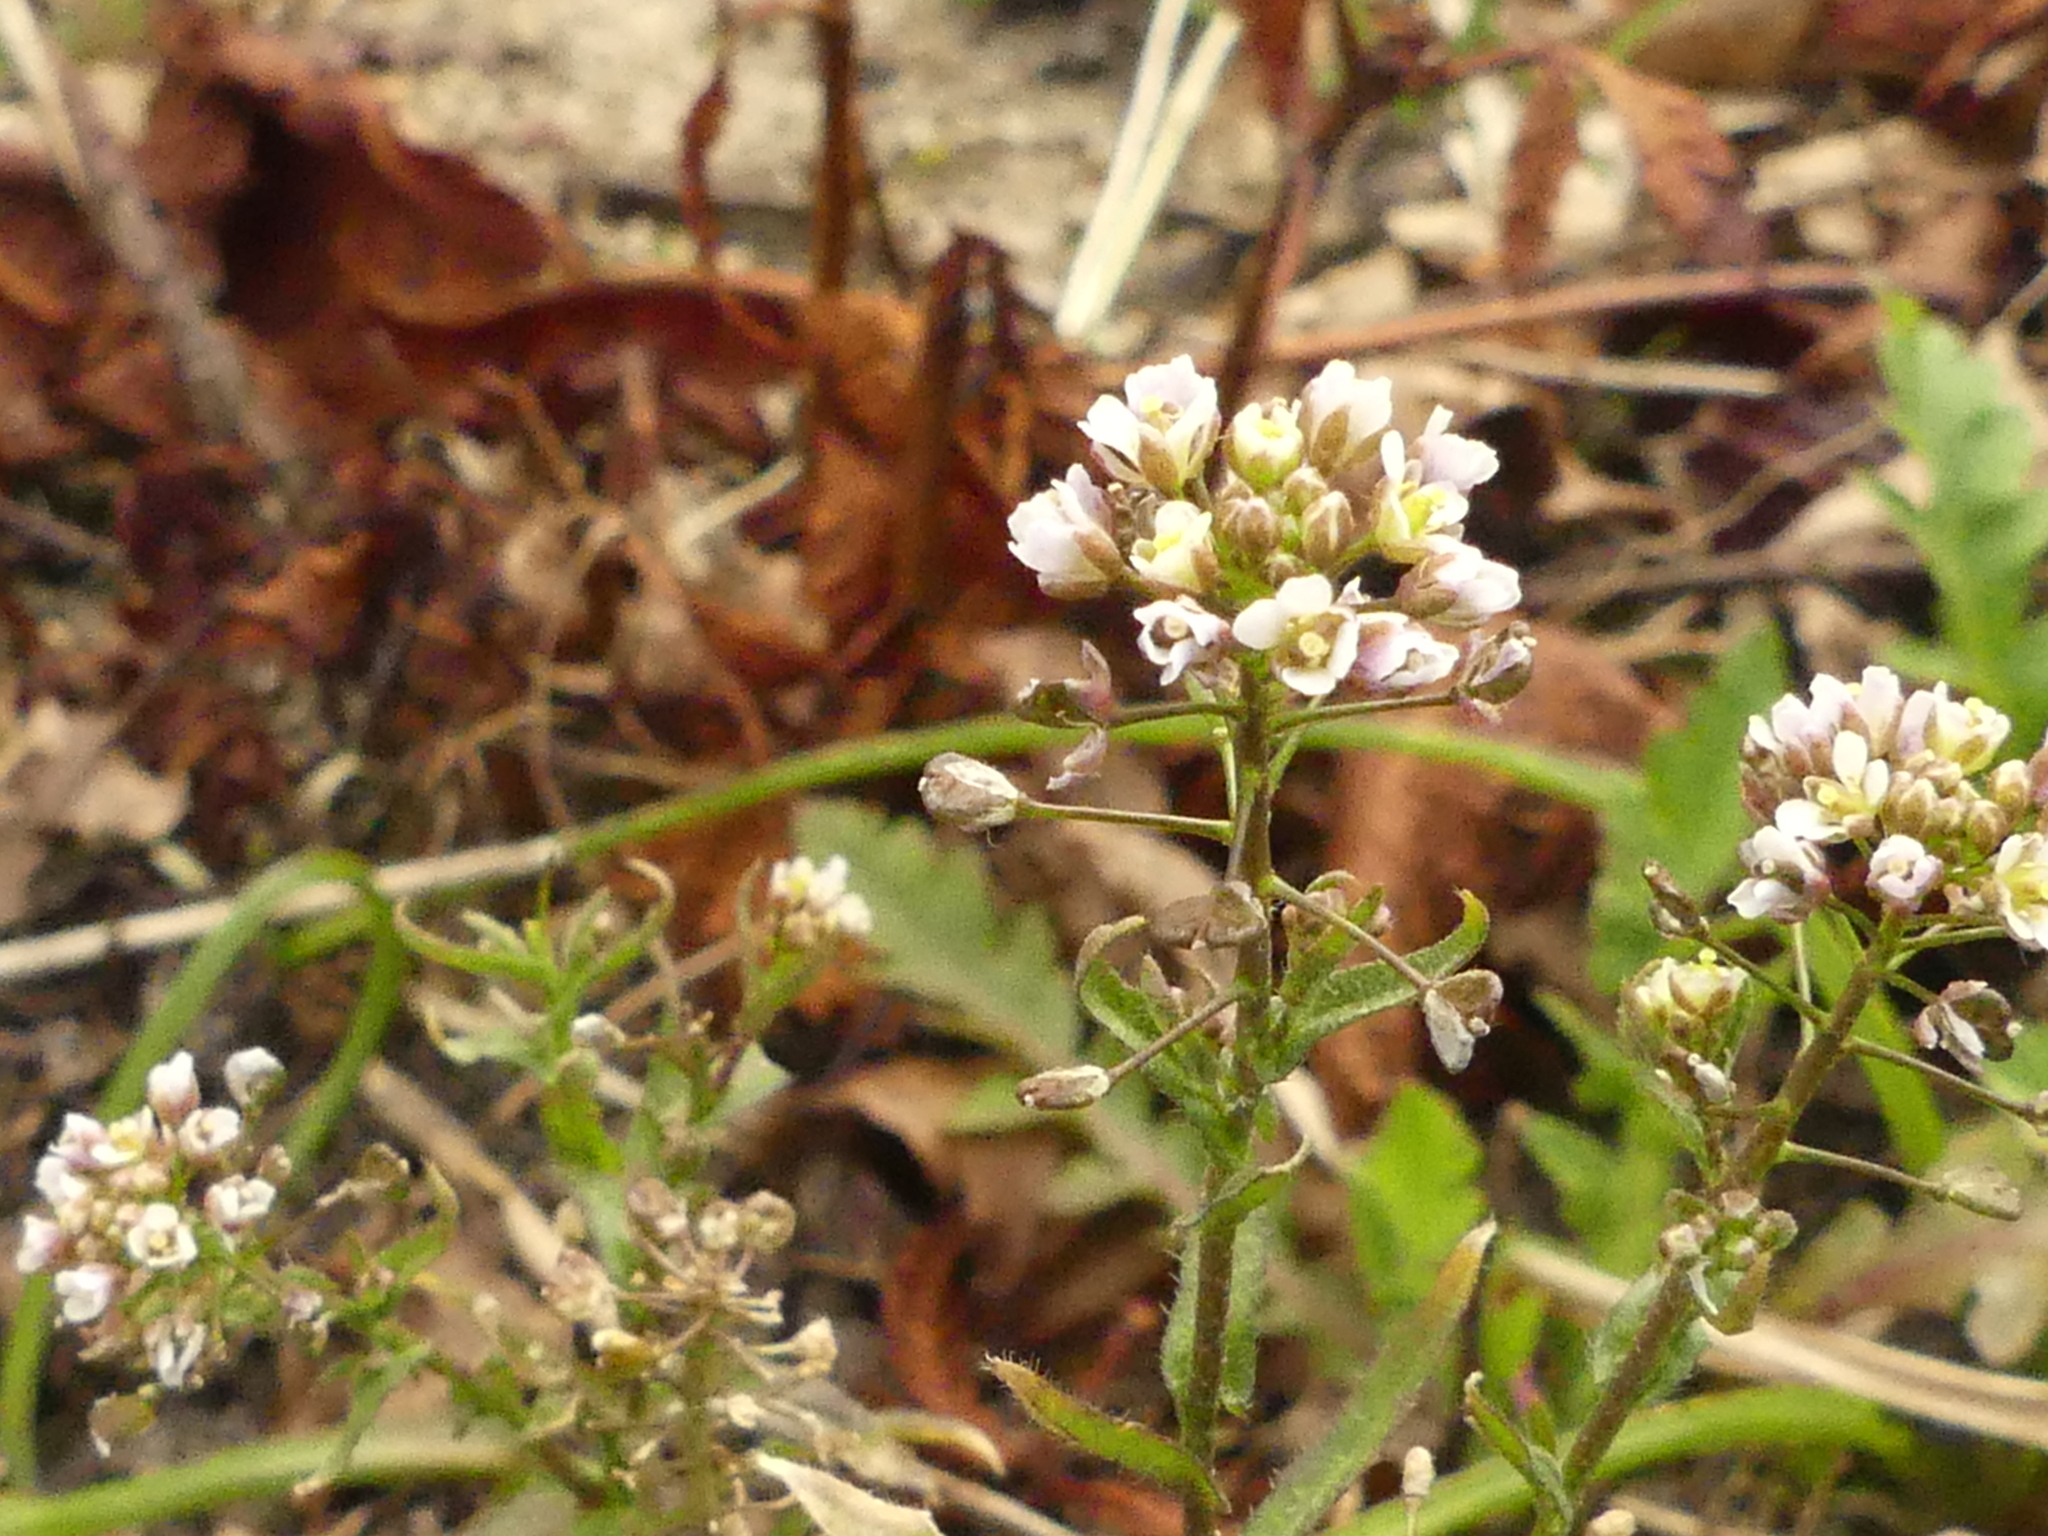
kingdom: Plantae
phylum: Tracheophyta
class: Magnoliopsida
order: Brassicales
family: Brassicaceae
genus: Capsella
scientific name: Capsella bursa-pastoris
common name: Shepherd's purse
